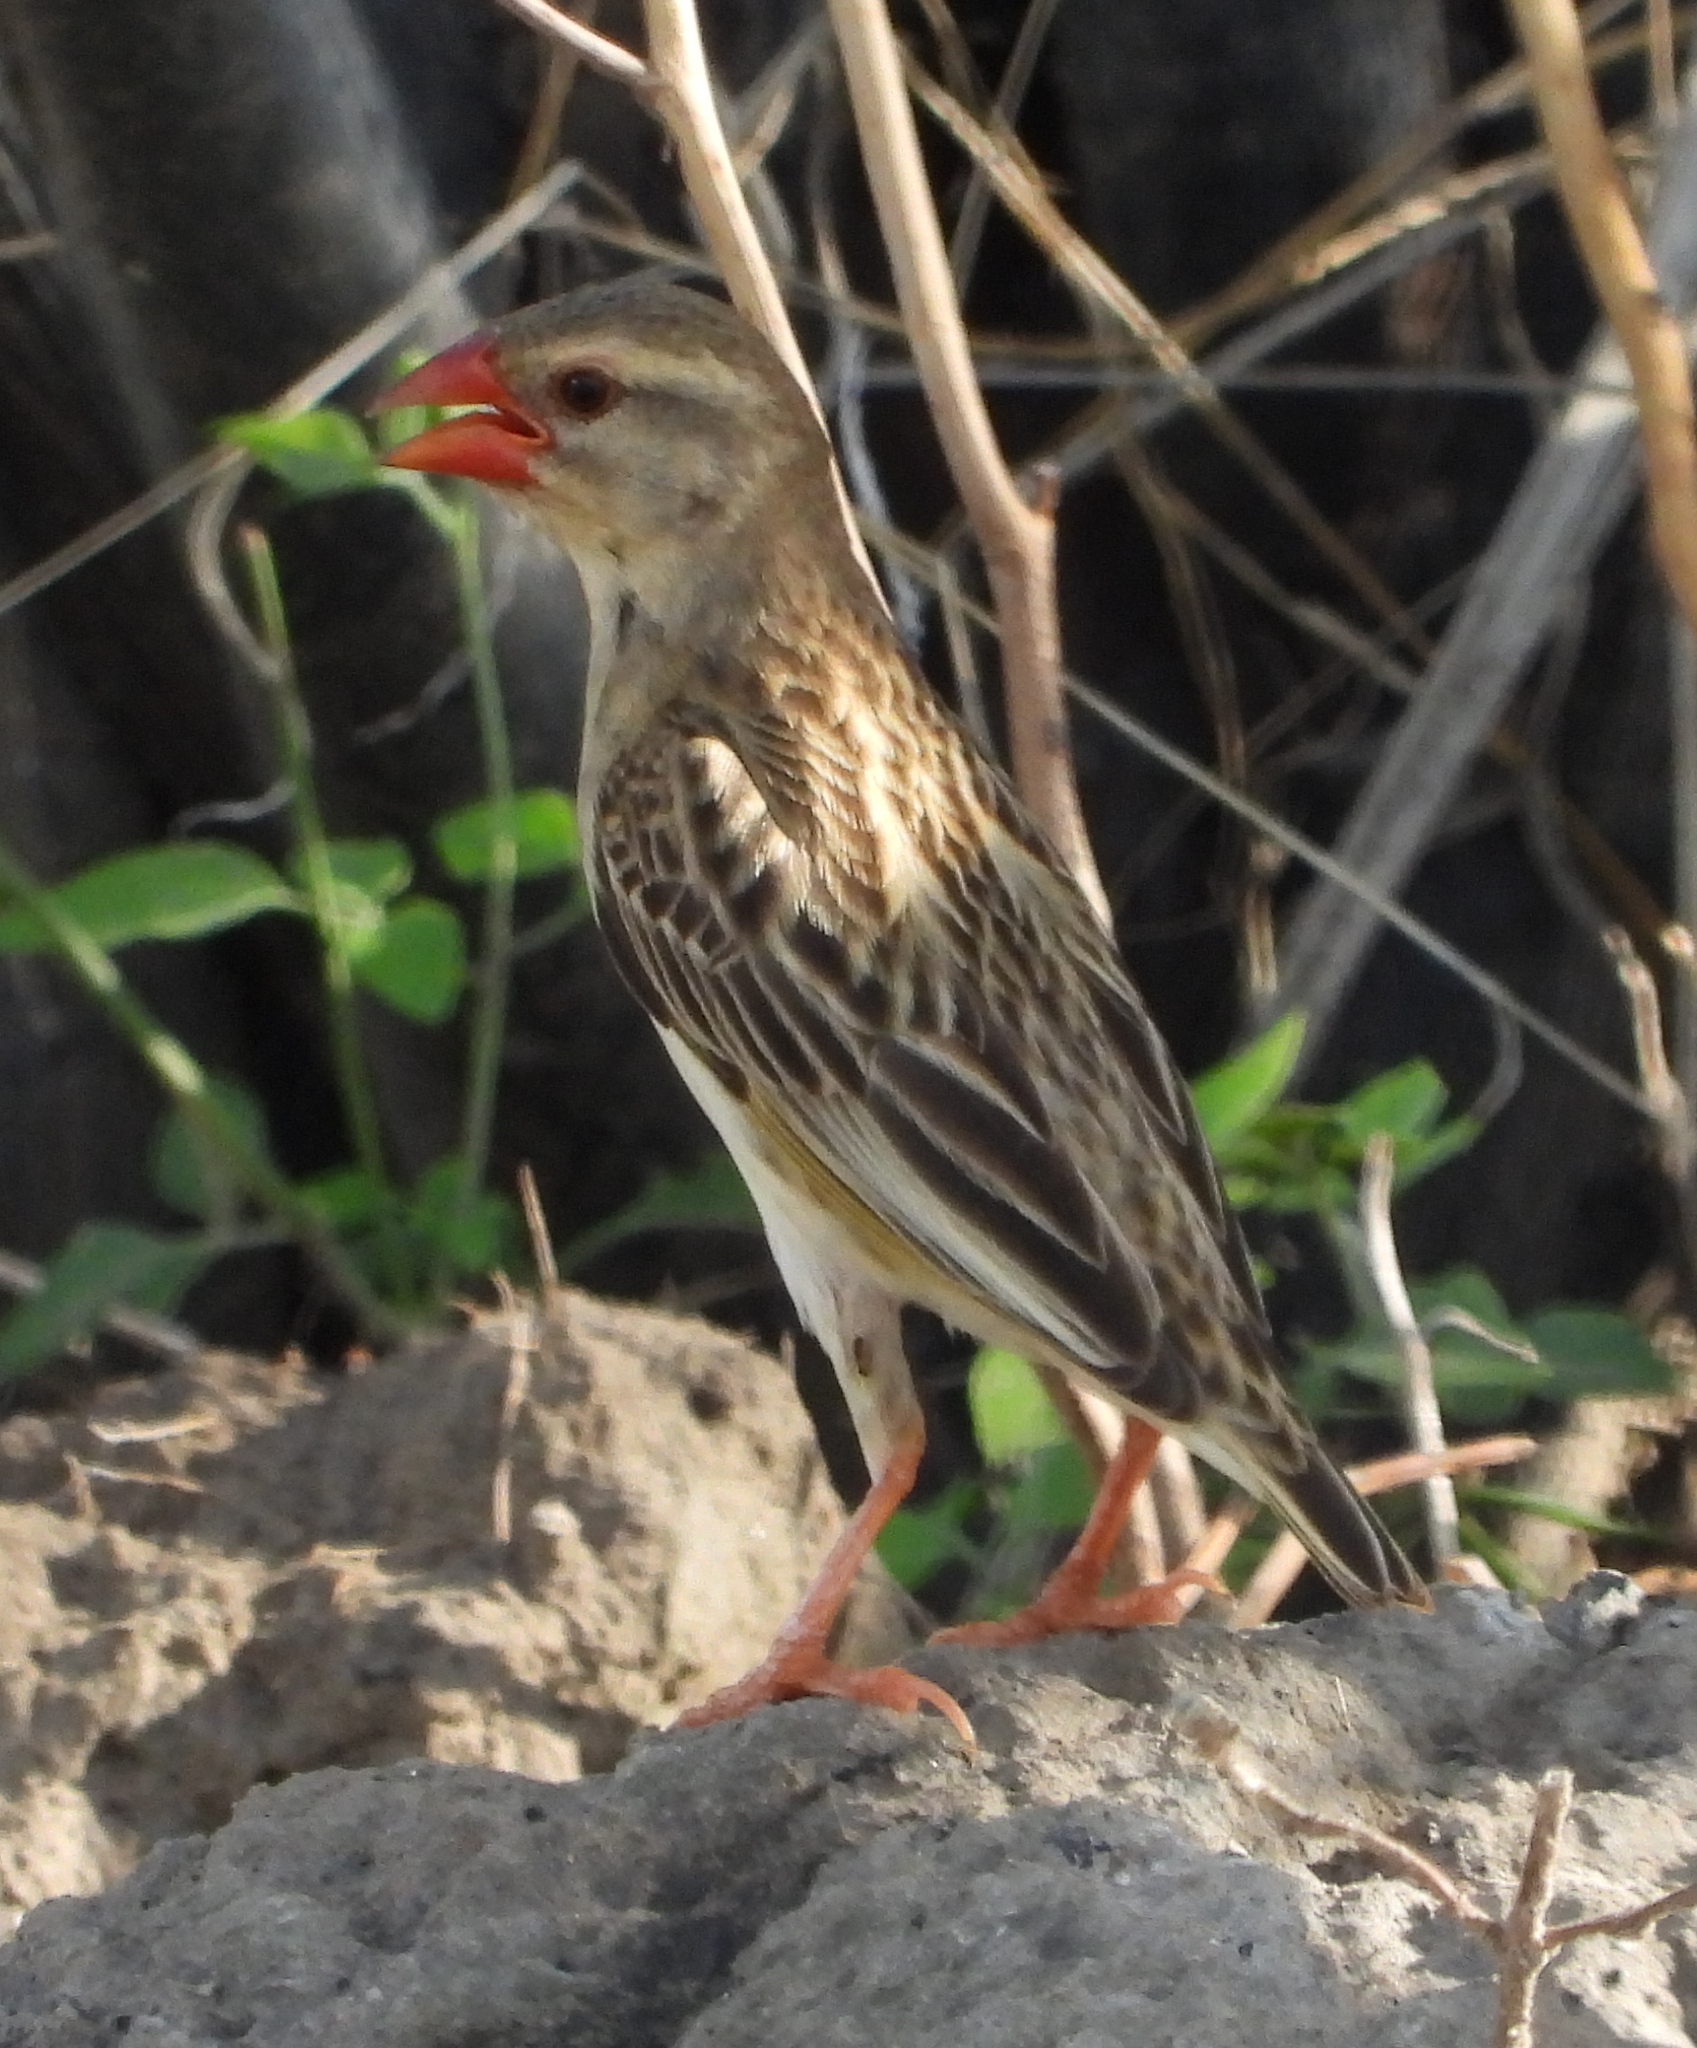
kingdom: Animalia
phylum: Chordata
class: Aves
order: Passeriformes
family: Ploceidae
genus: Quelea
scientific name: Quelea quelea
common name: Red-billed quelea
